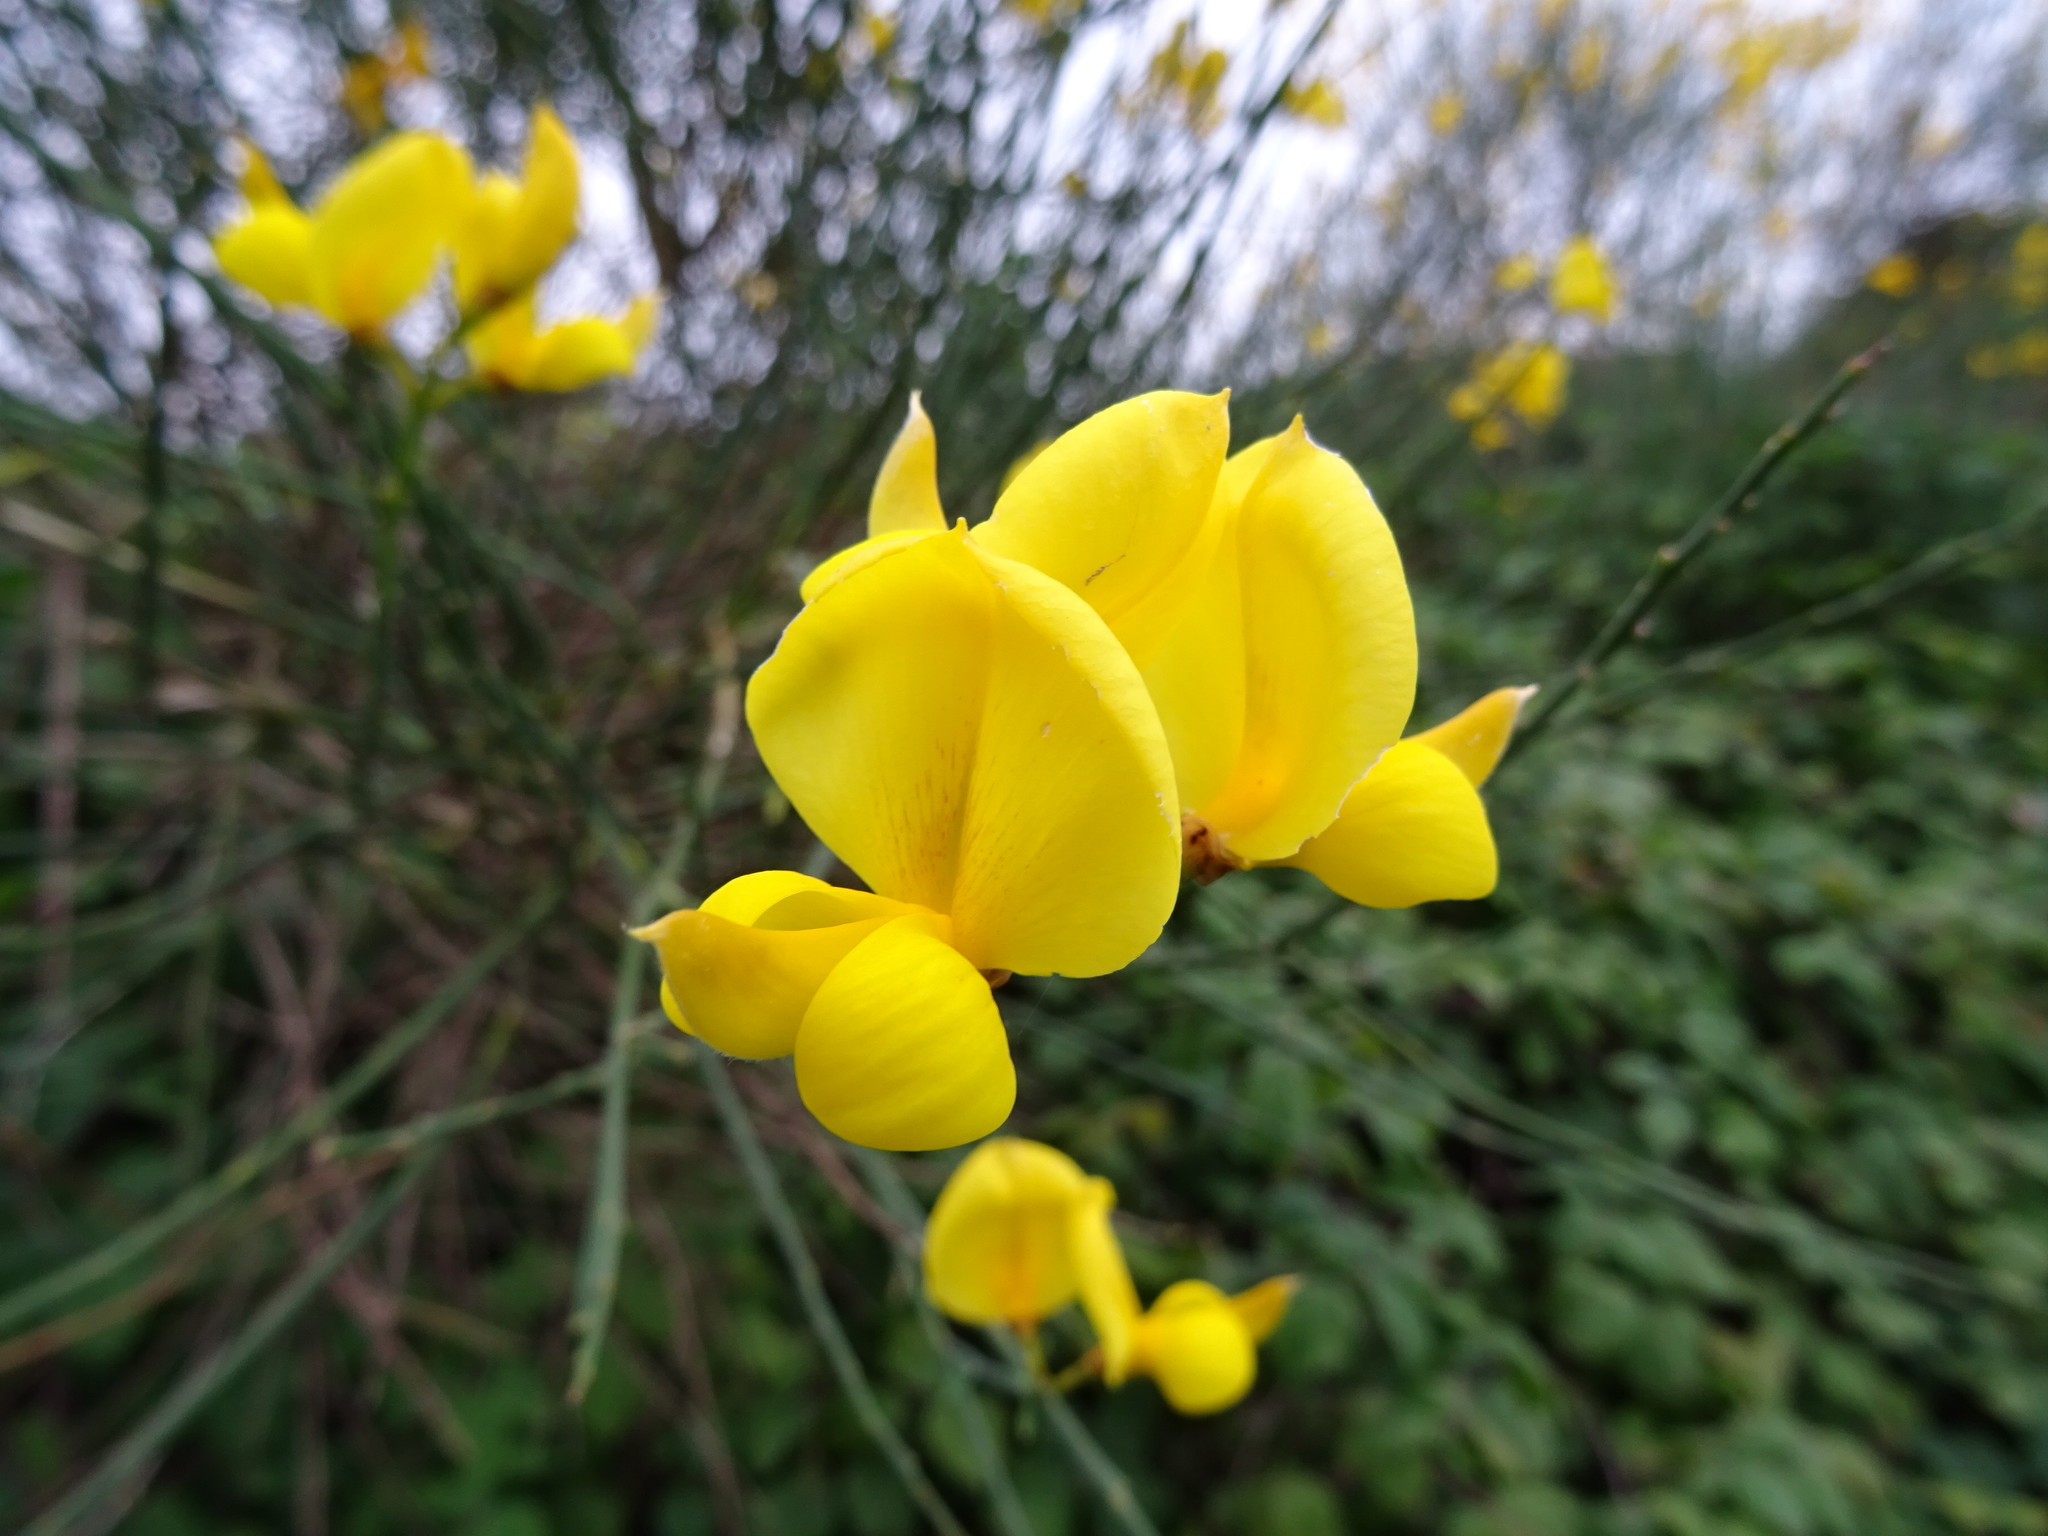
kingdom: Plantae
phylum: Tracheophyta
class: Magnoliopsida
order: Fabales
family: Fabaceae
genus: Spartium
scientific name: Spartium junceum
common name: Spanish broom
